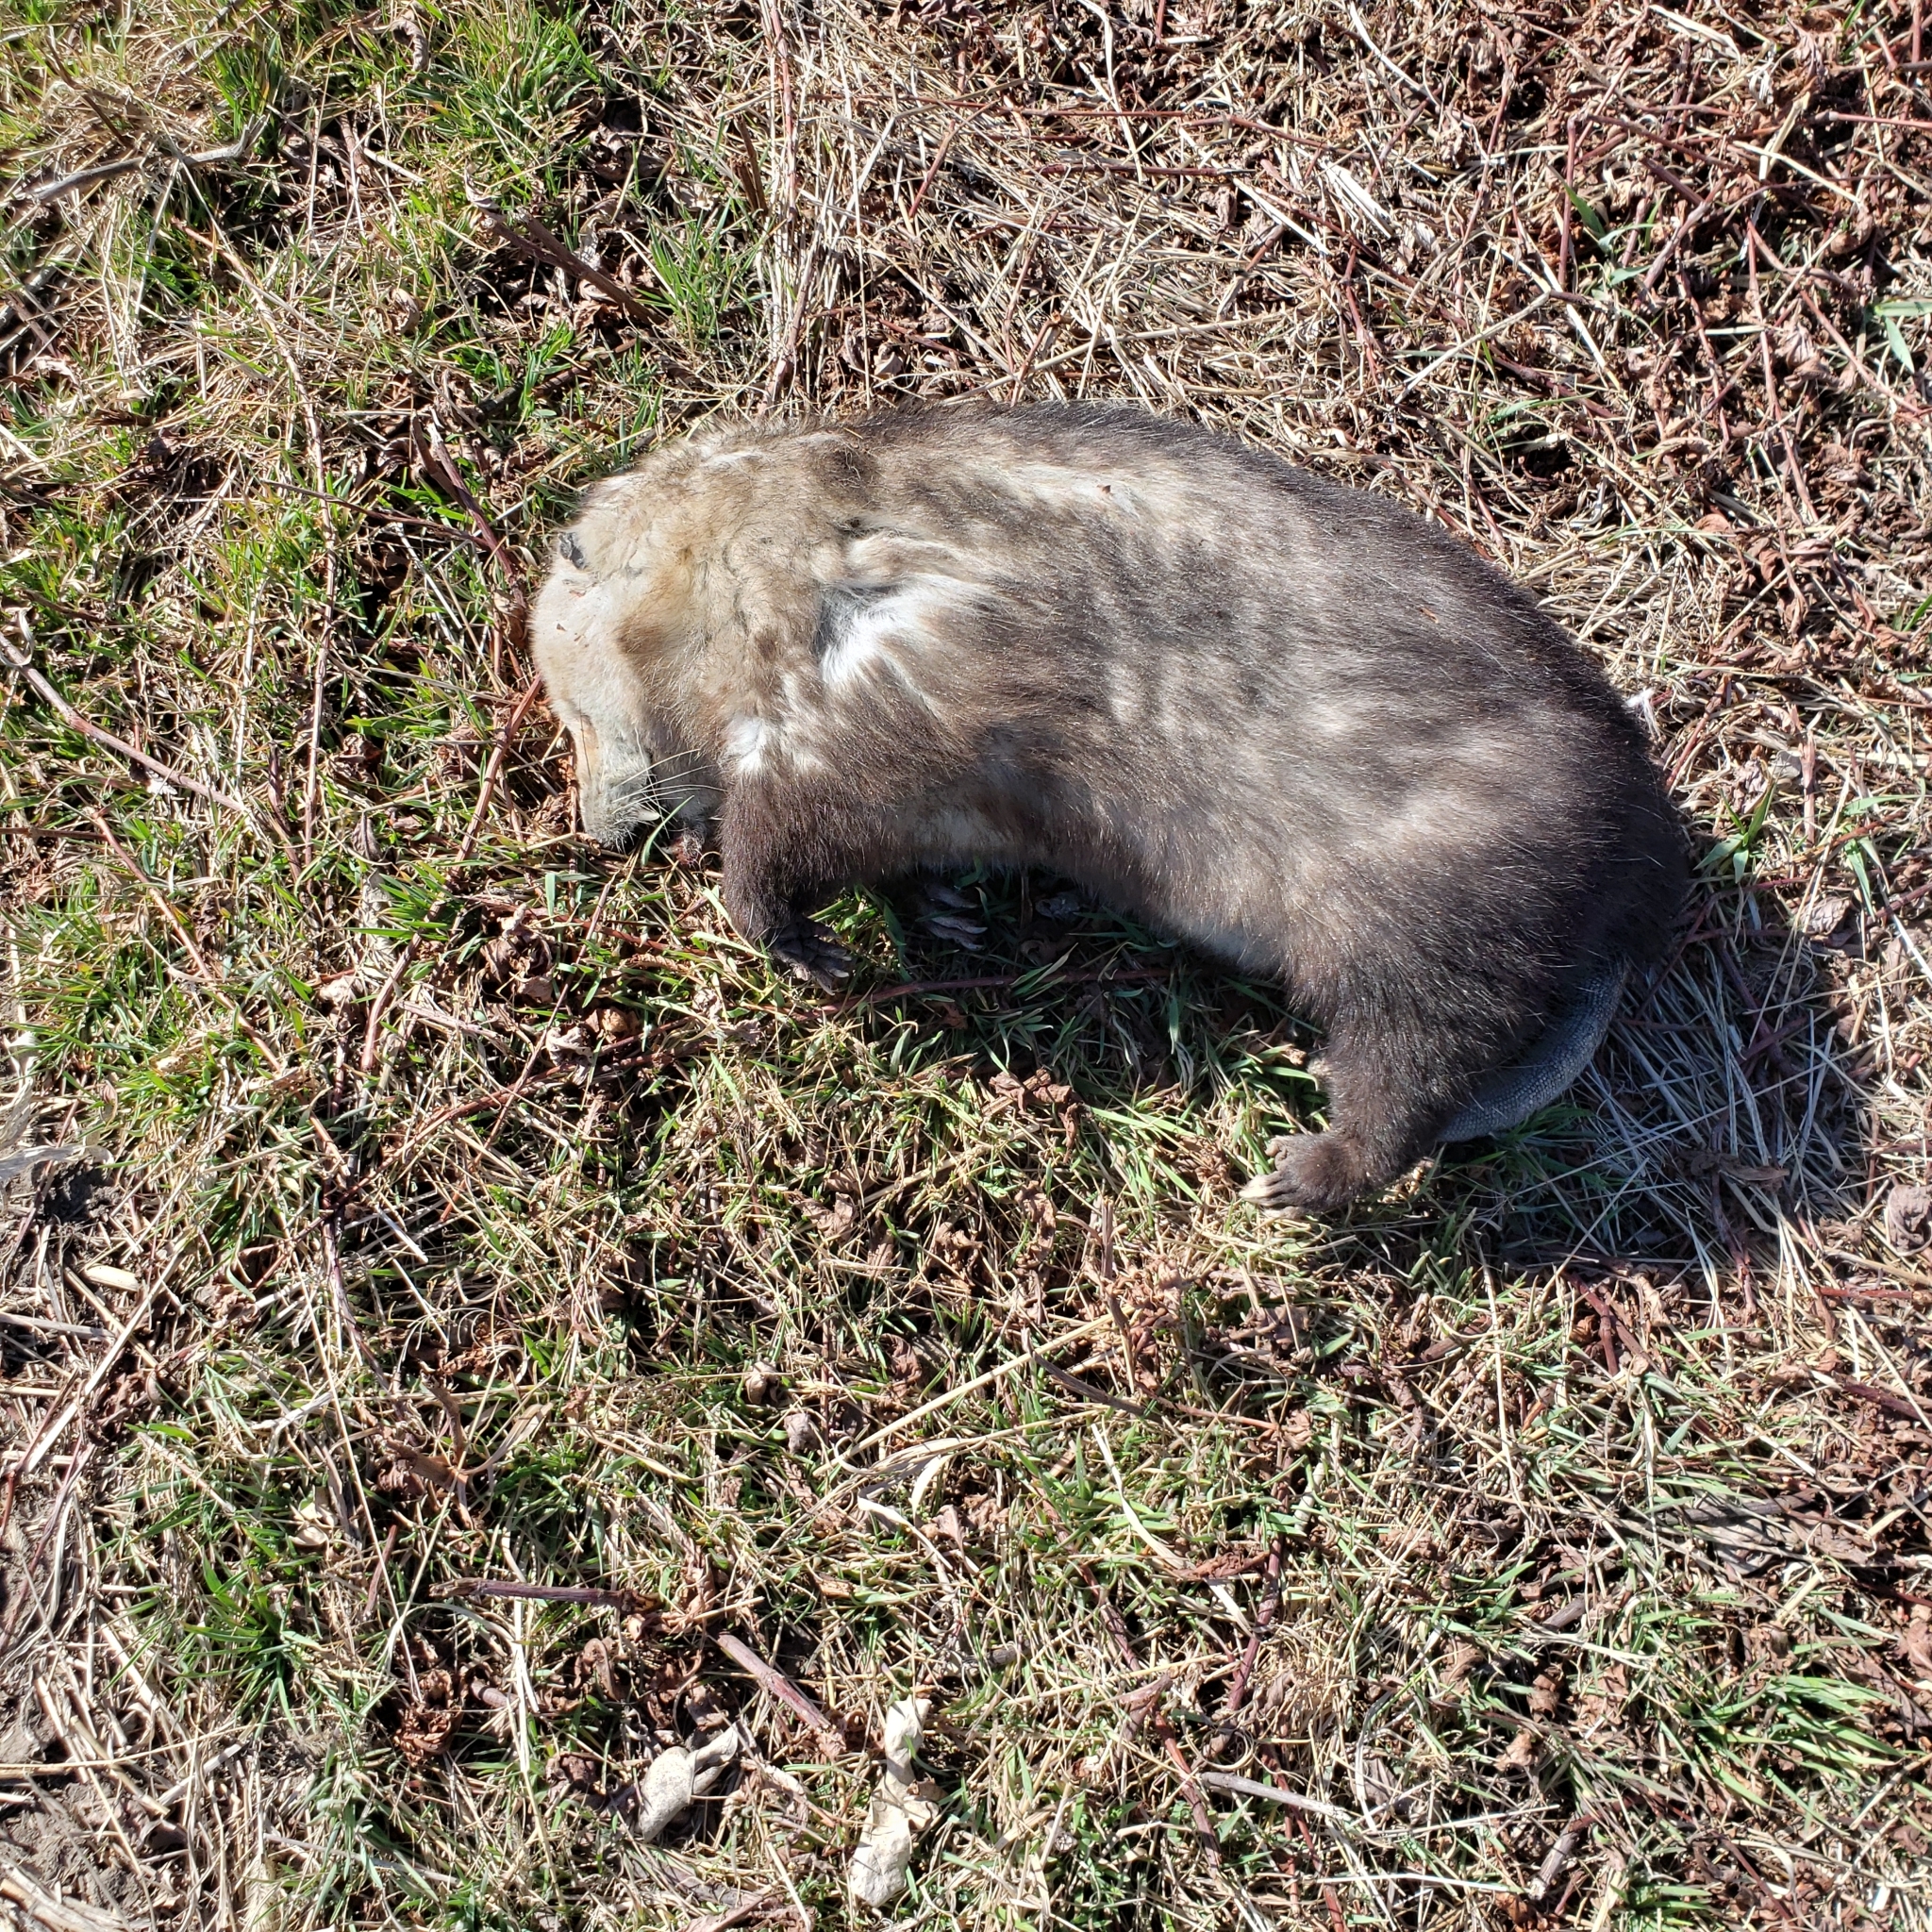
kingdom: Animalia
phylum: Chordata
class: Mammalia
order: Didelphimorphia
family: Didelphidae
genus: Didelphis
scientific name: Didelphis virginiana
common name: Virginia opossum
